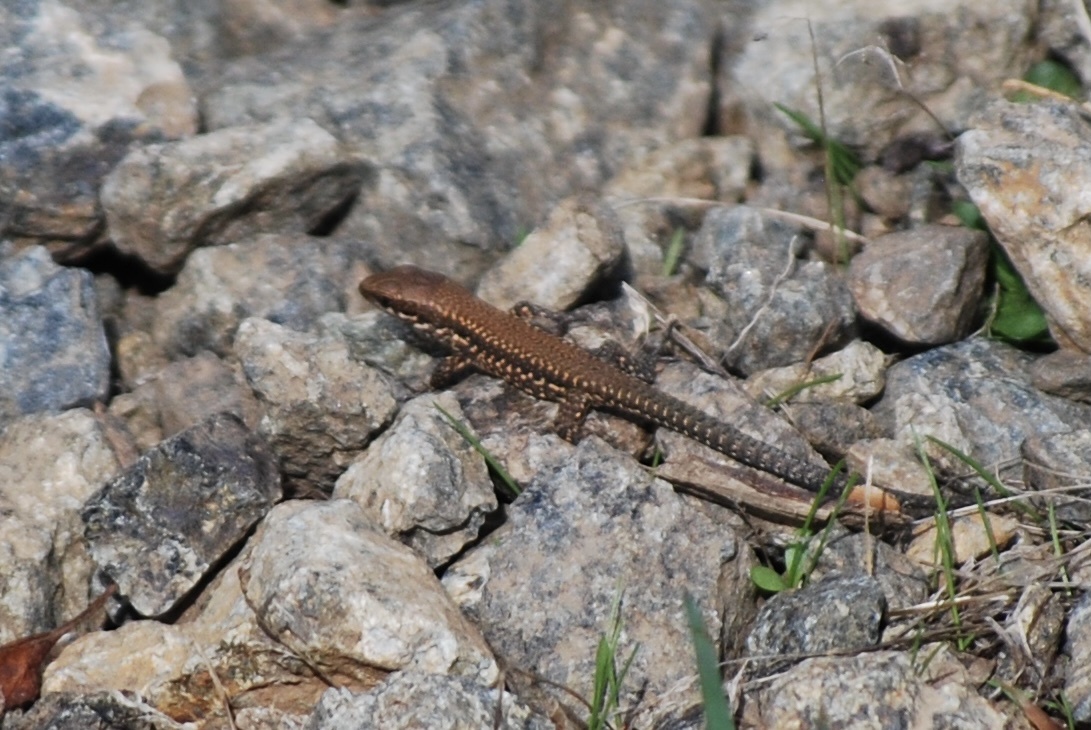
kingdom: Animalia
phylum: Chordata
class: Squamata
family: Lacertidae
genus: Podarcis
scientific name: Podarcis muralis
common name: Common wall lizard
